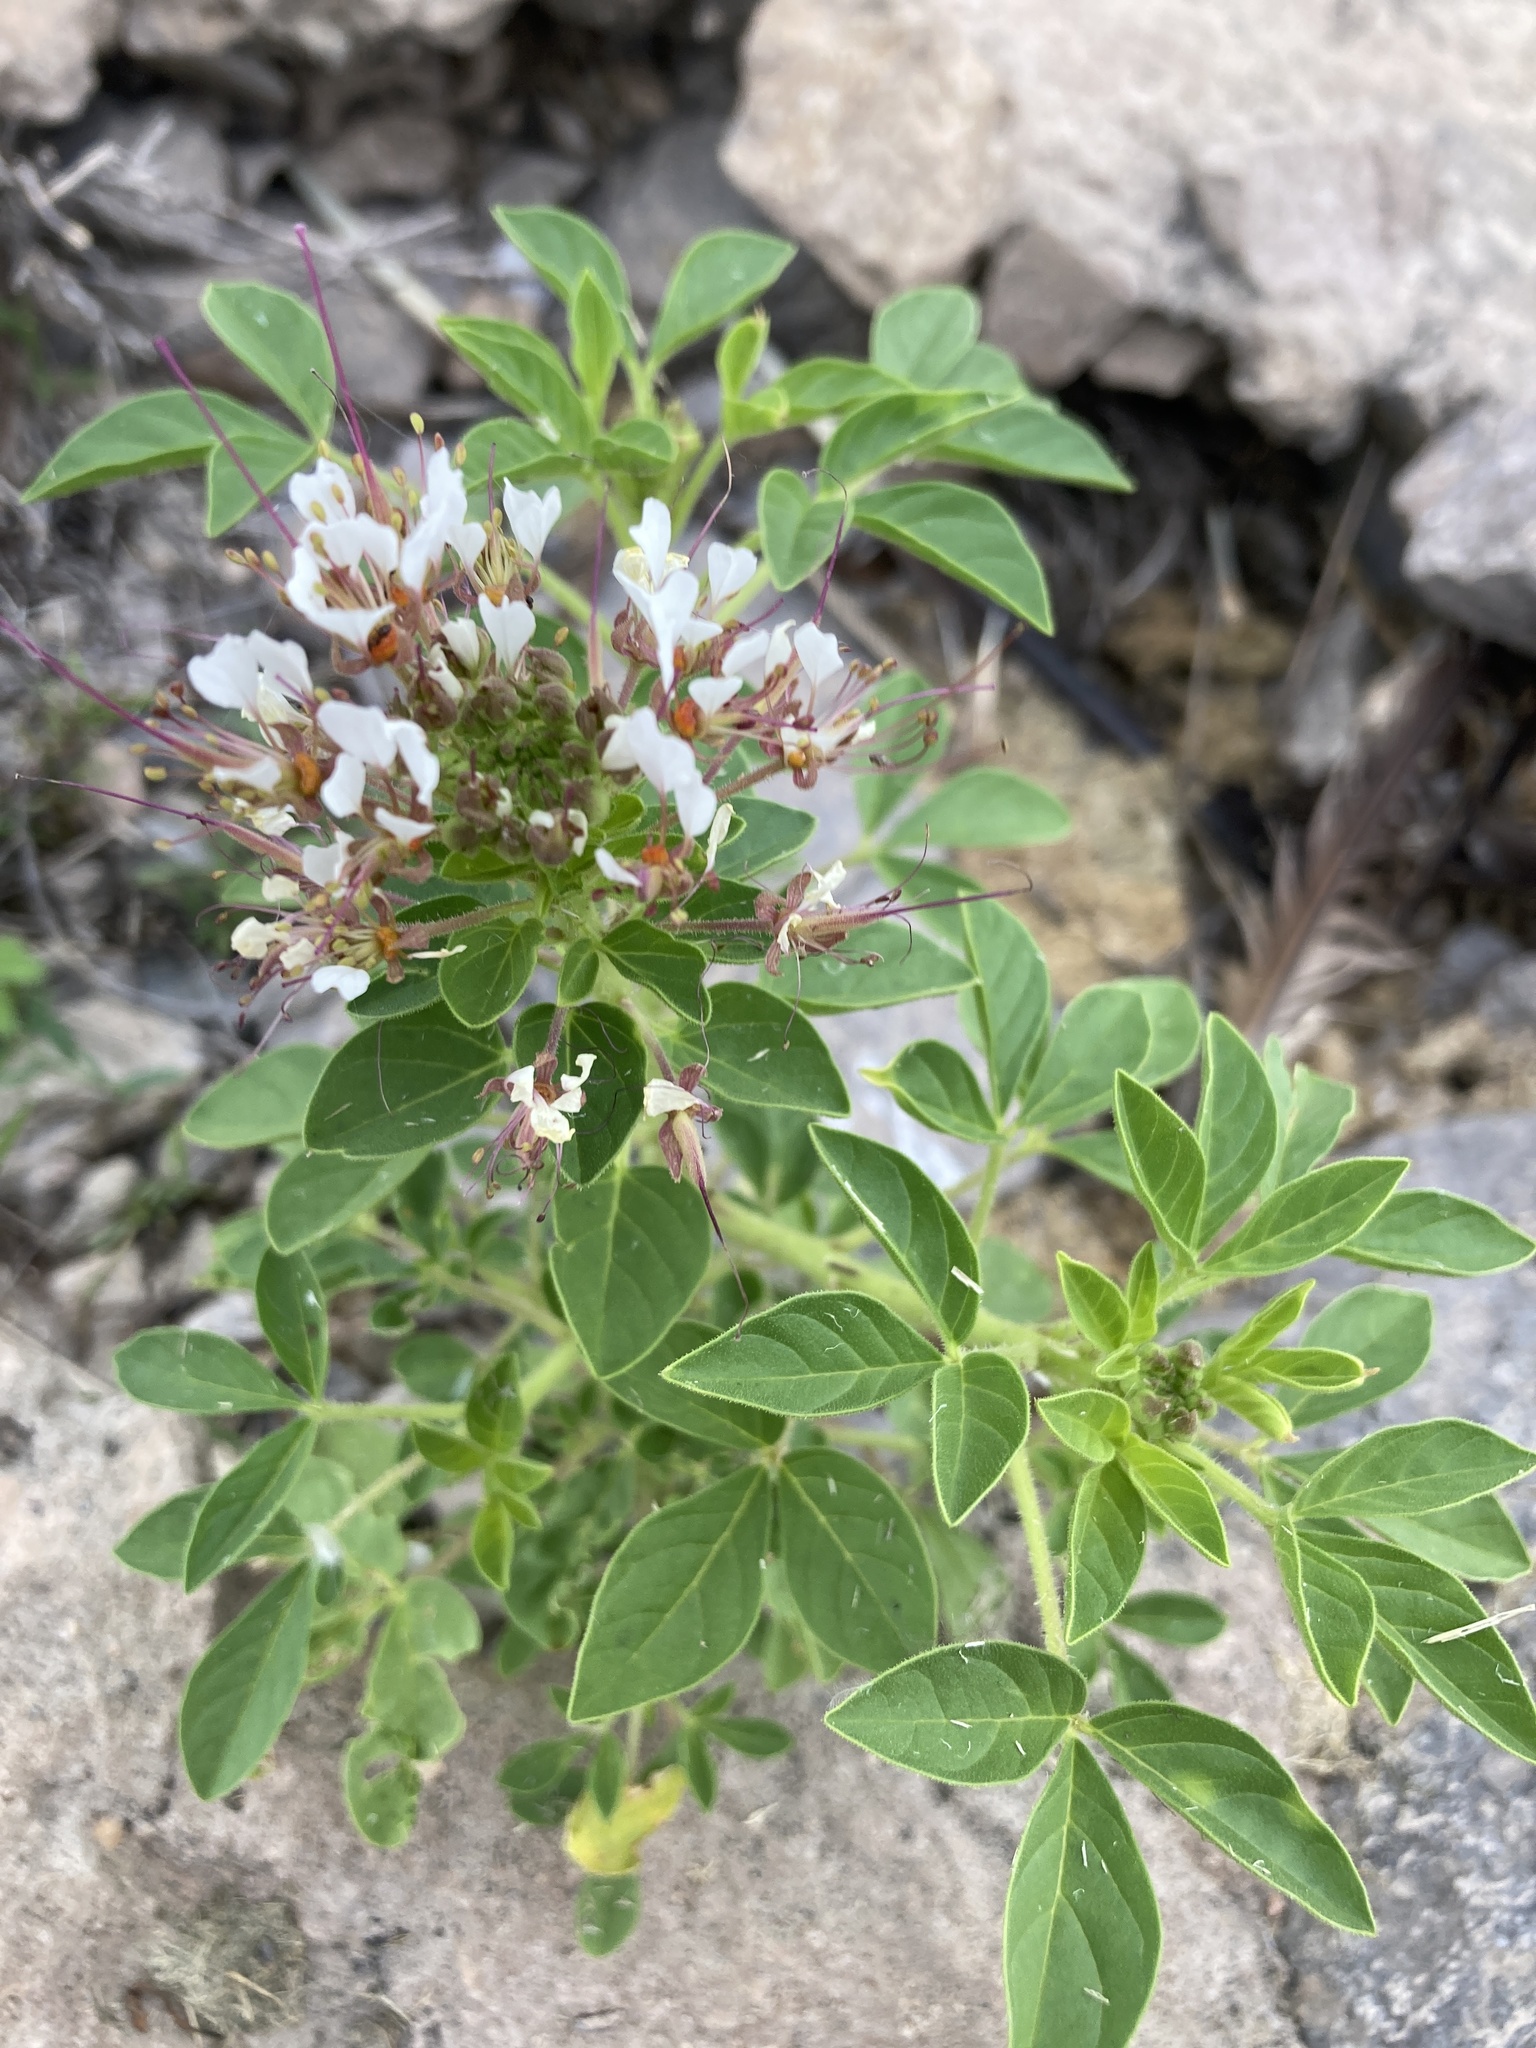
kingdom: Plantae
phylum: Tracheophyta
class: Magnoliopsida
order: Brassicales
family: Cleomaceae
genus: Polanisia
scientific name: Polanisia dodecandra
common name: Clammyweed
